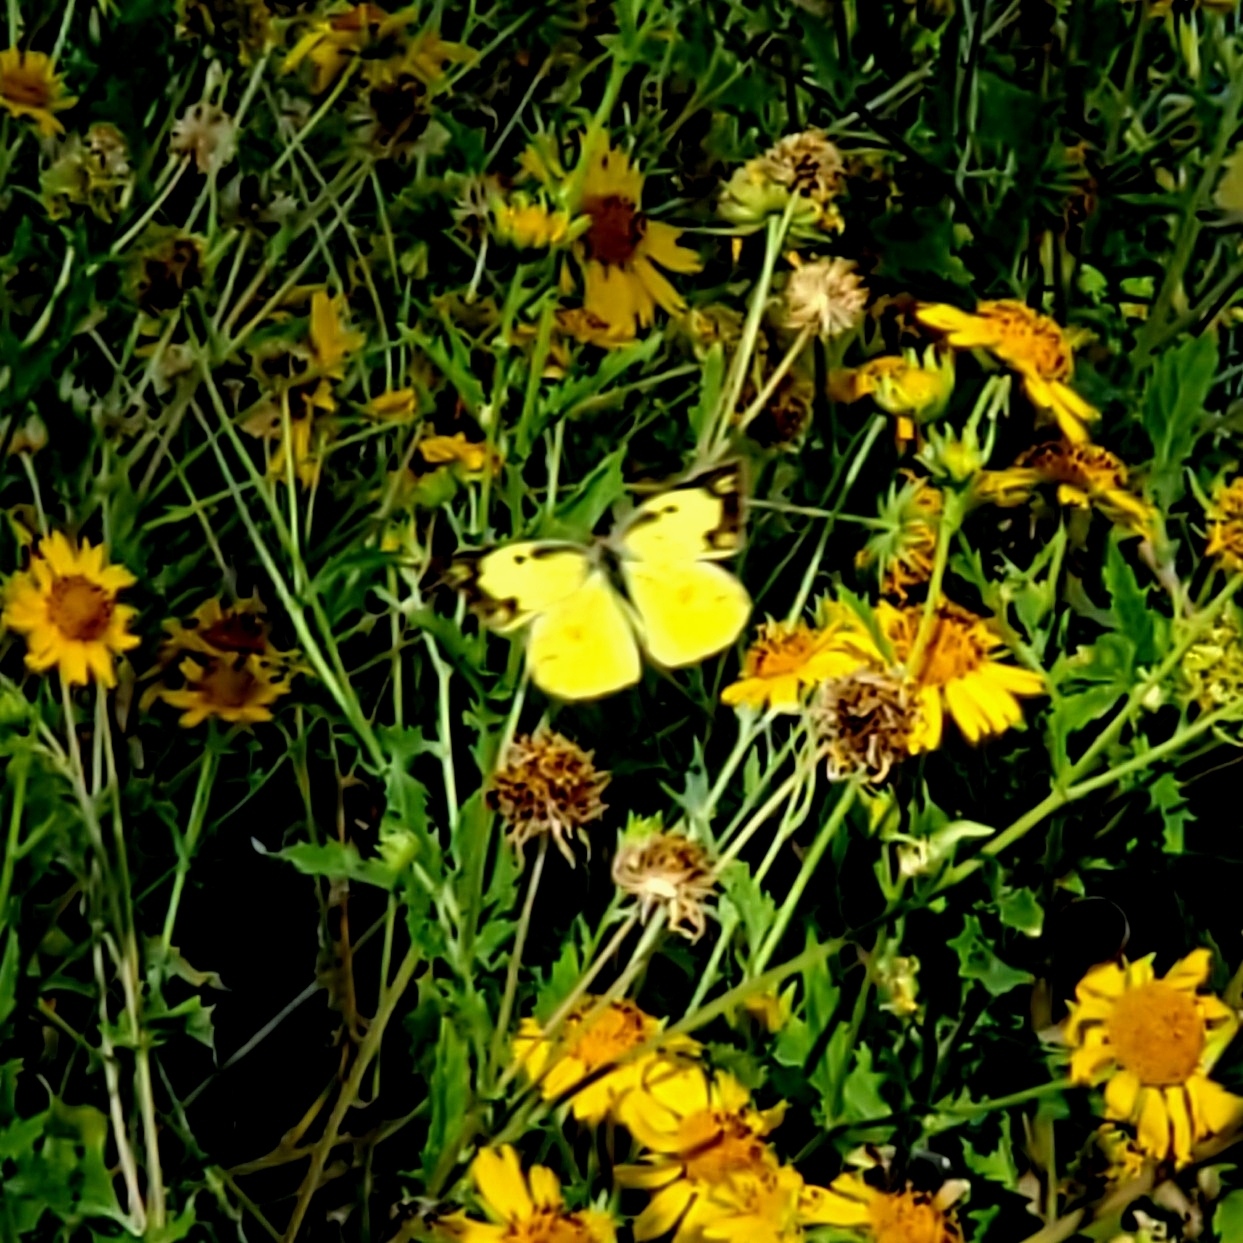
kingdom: Animalia
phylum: Arthropoda
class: Insecta
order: Lepidoptera
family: Pieridae
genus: Zerene
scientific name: Zerene cesonia
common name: Southern dogface
